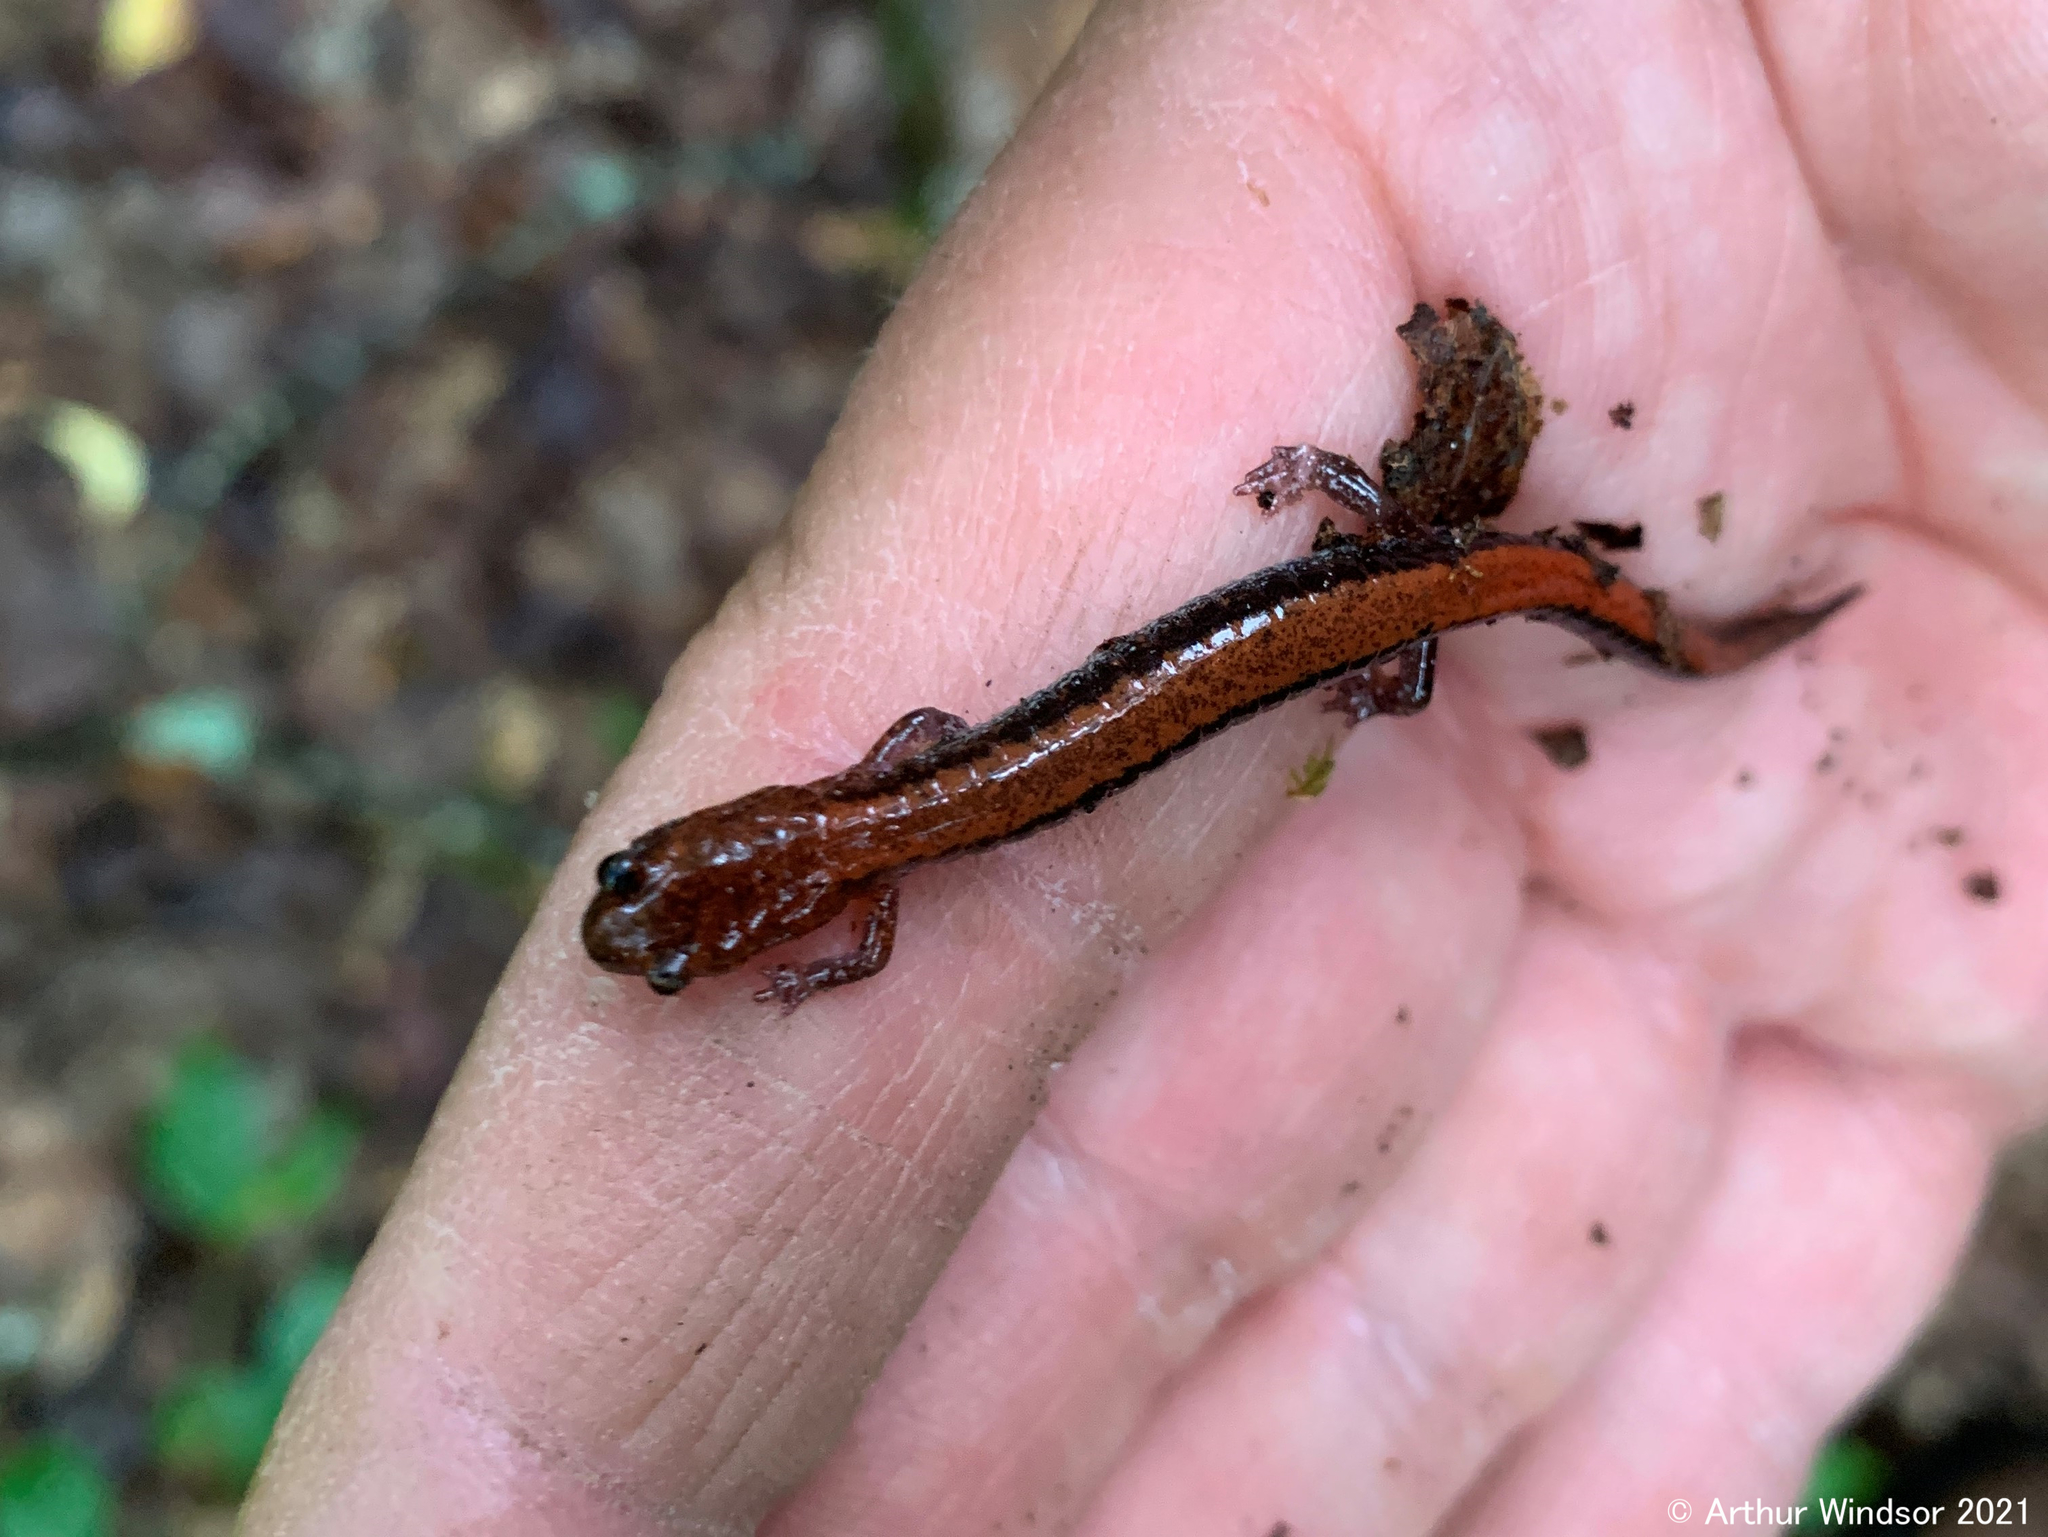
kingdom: Animalia
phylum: Chordata
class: Amphibia
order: Caudata
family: Plethodontidae
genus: Plethodon
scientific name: Plethodon cinereus
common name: Redback salamander
